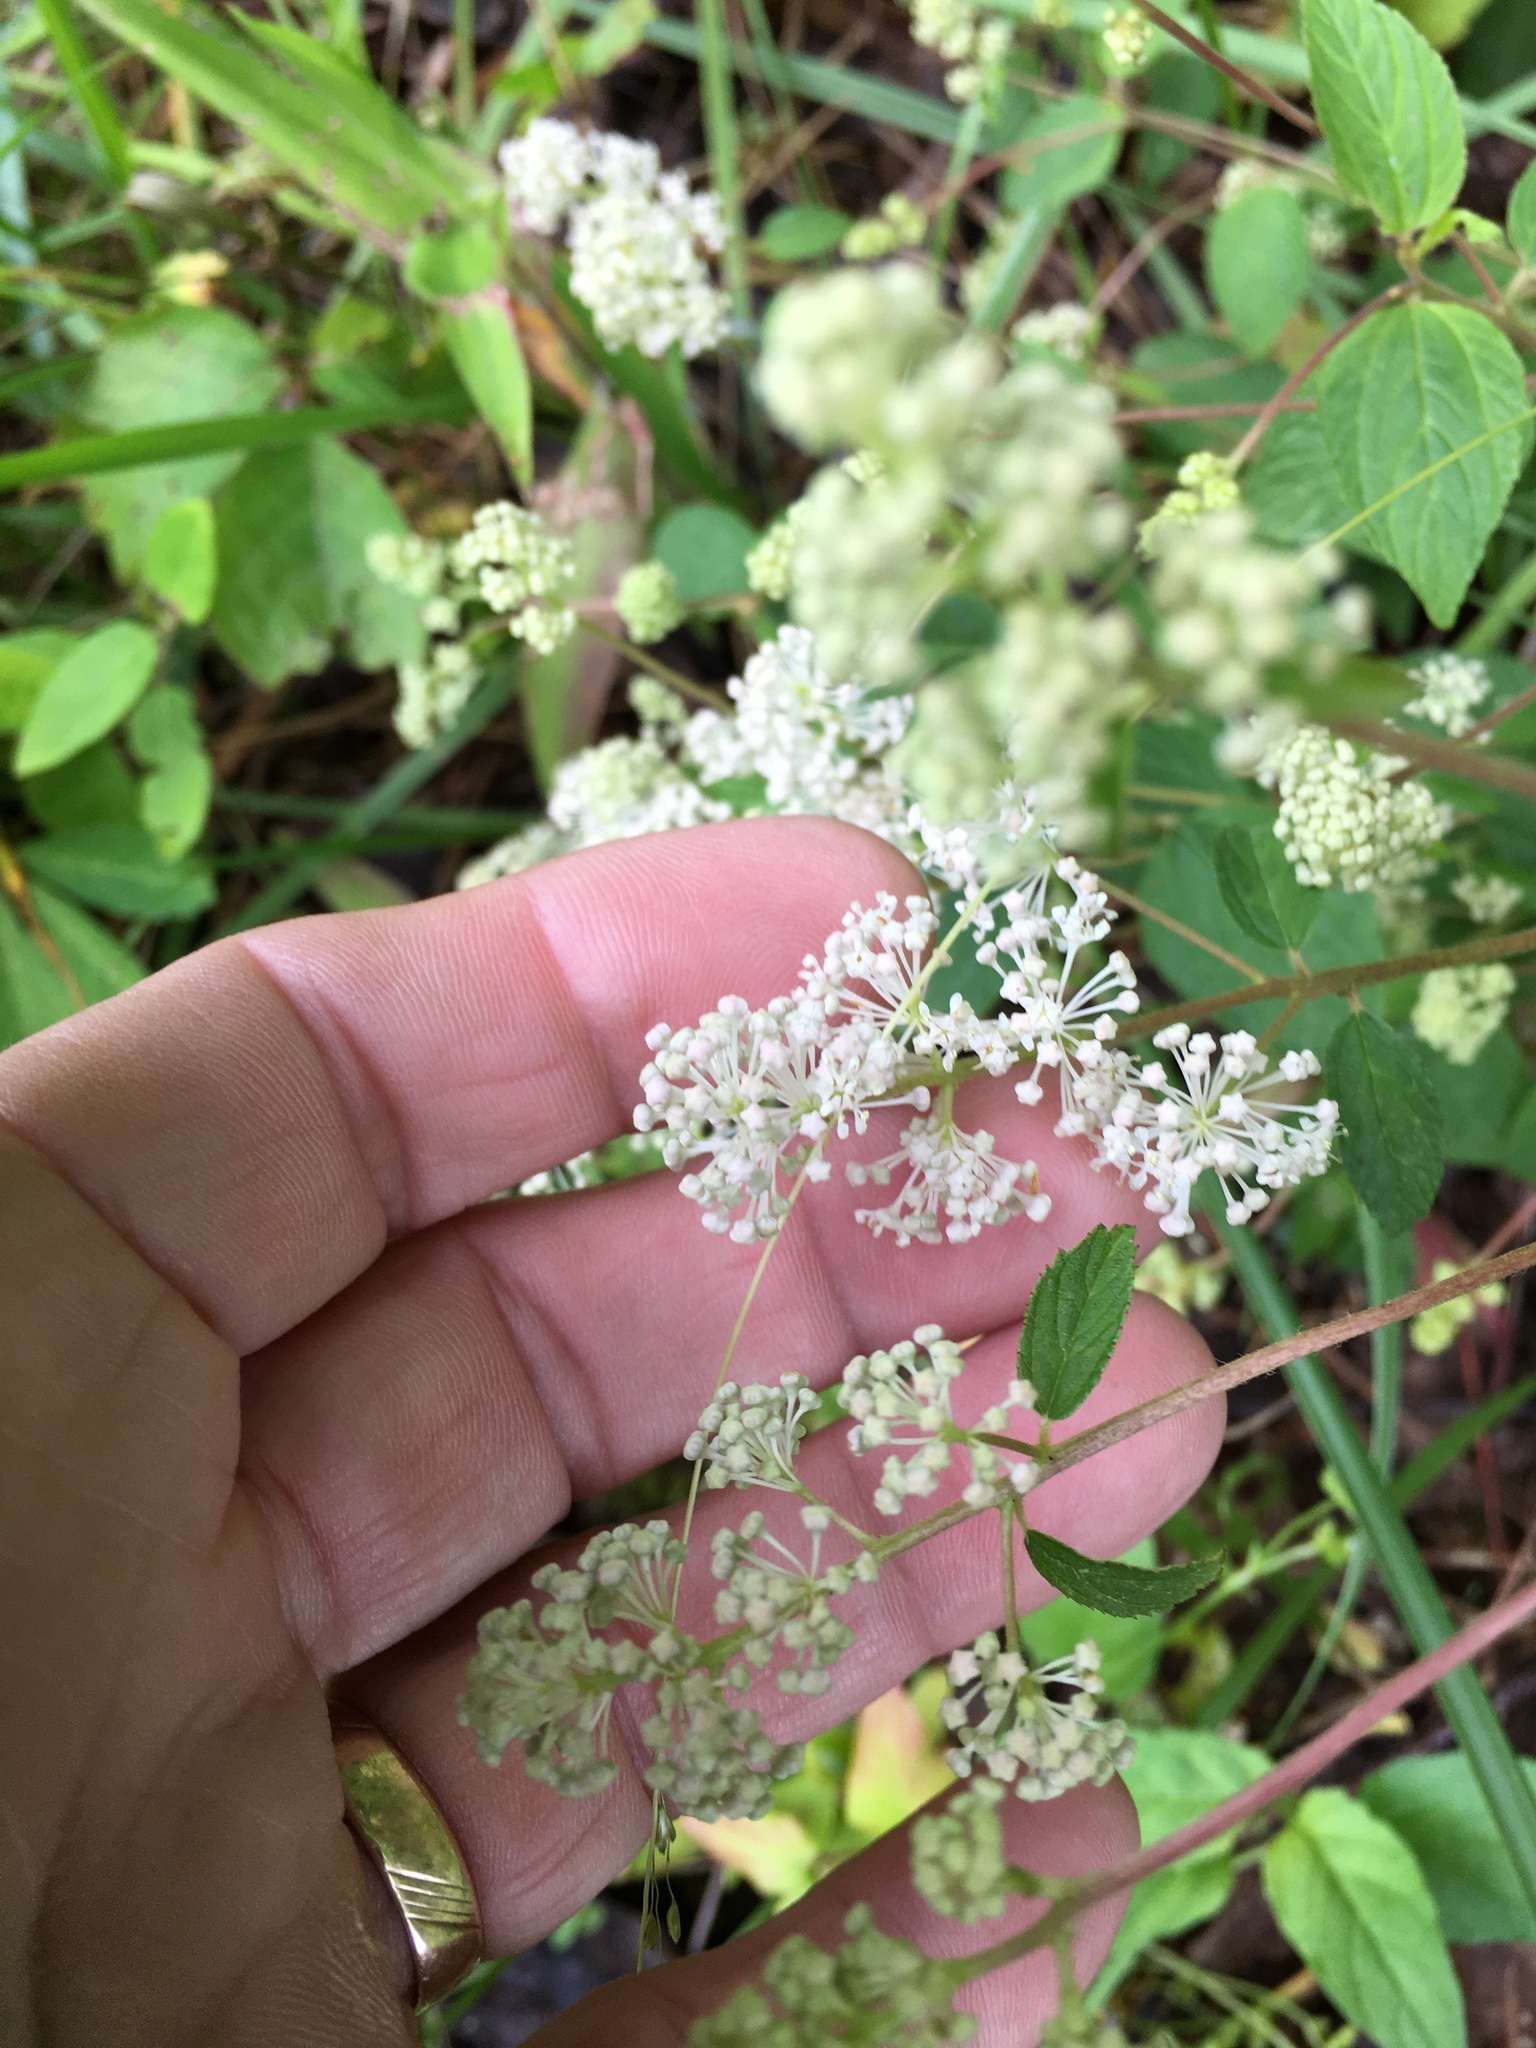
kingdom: Plantae
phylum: Tracheophyta
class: Magnoliopsida
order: Rosales
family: Rhamnaceae
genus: Ceanothus
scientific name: Ceanothus americanus
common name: Redroot
